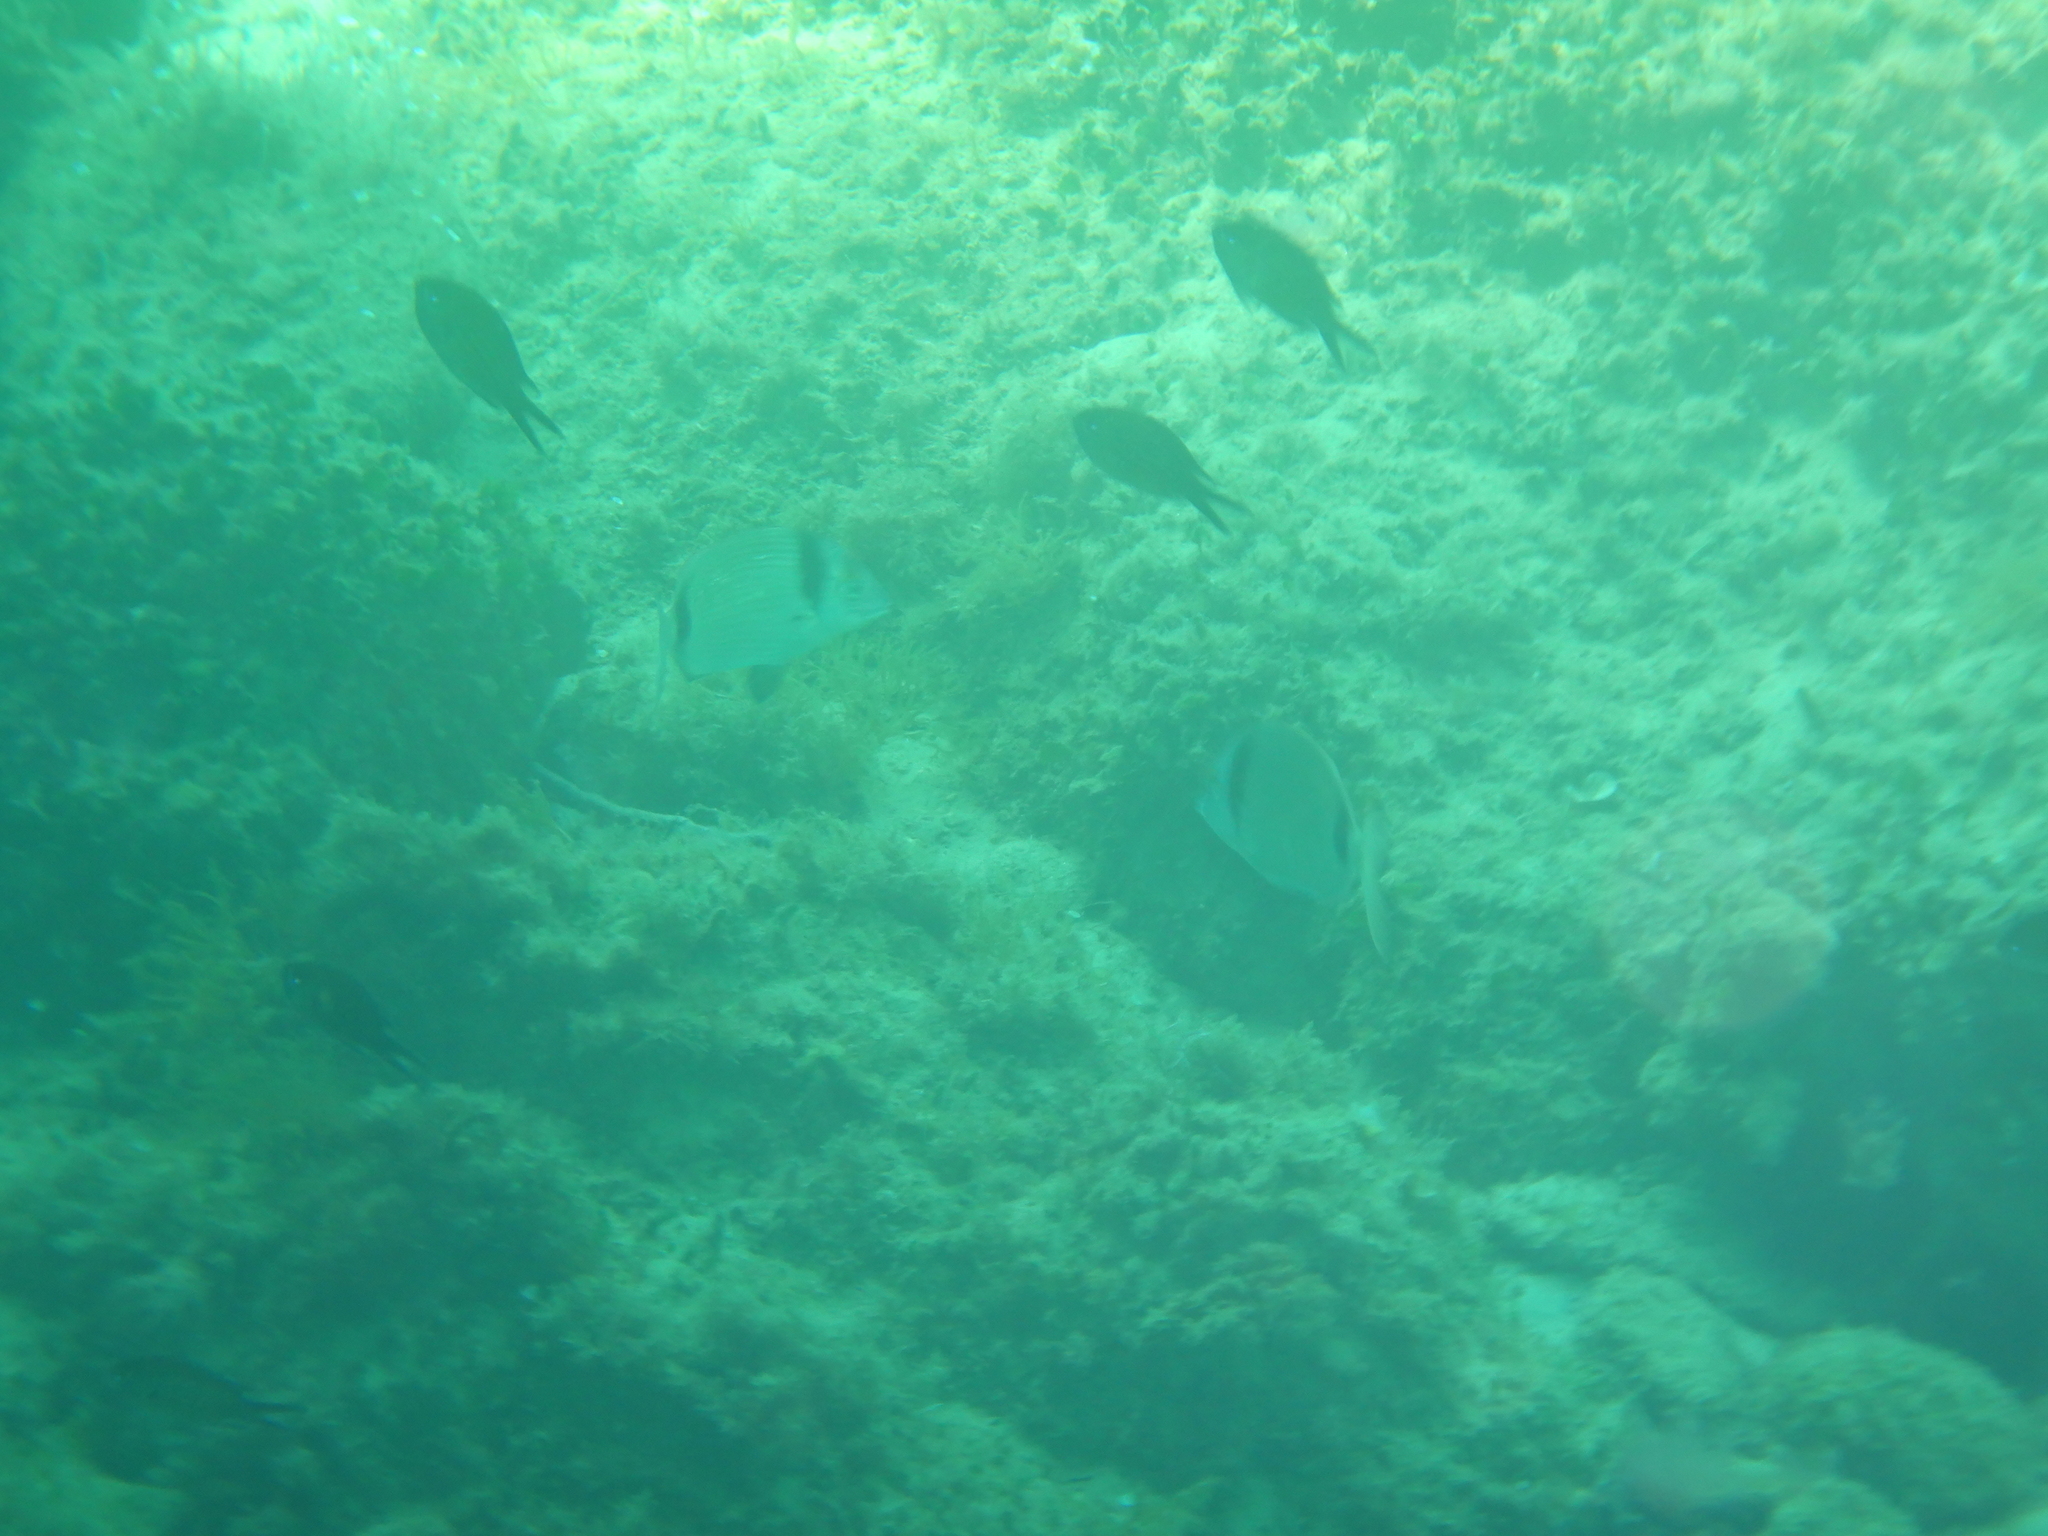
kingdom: Animalia
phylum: Chordata
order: Perciformes
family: Sparidae
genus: Diplodus
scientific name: Diplodus vulgaris
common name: Common two-banded seabream
